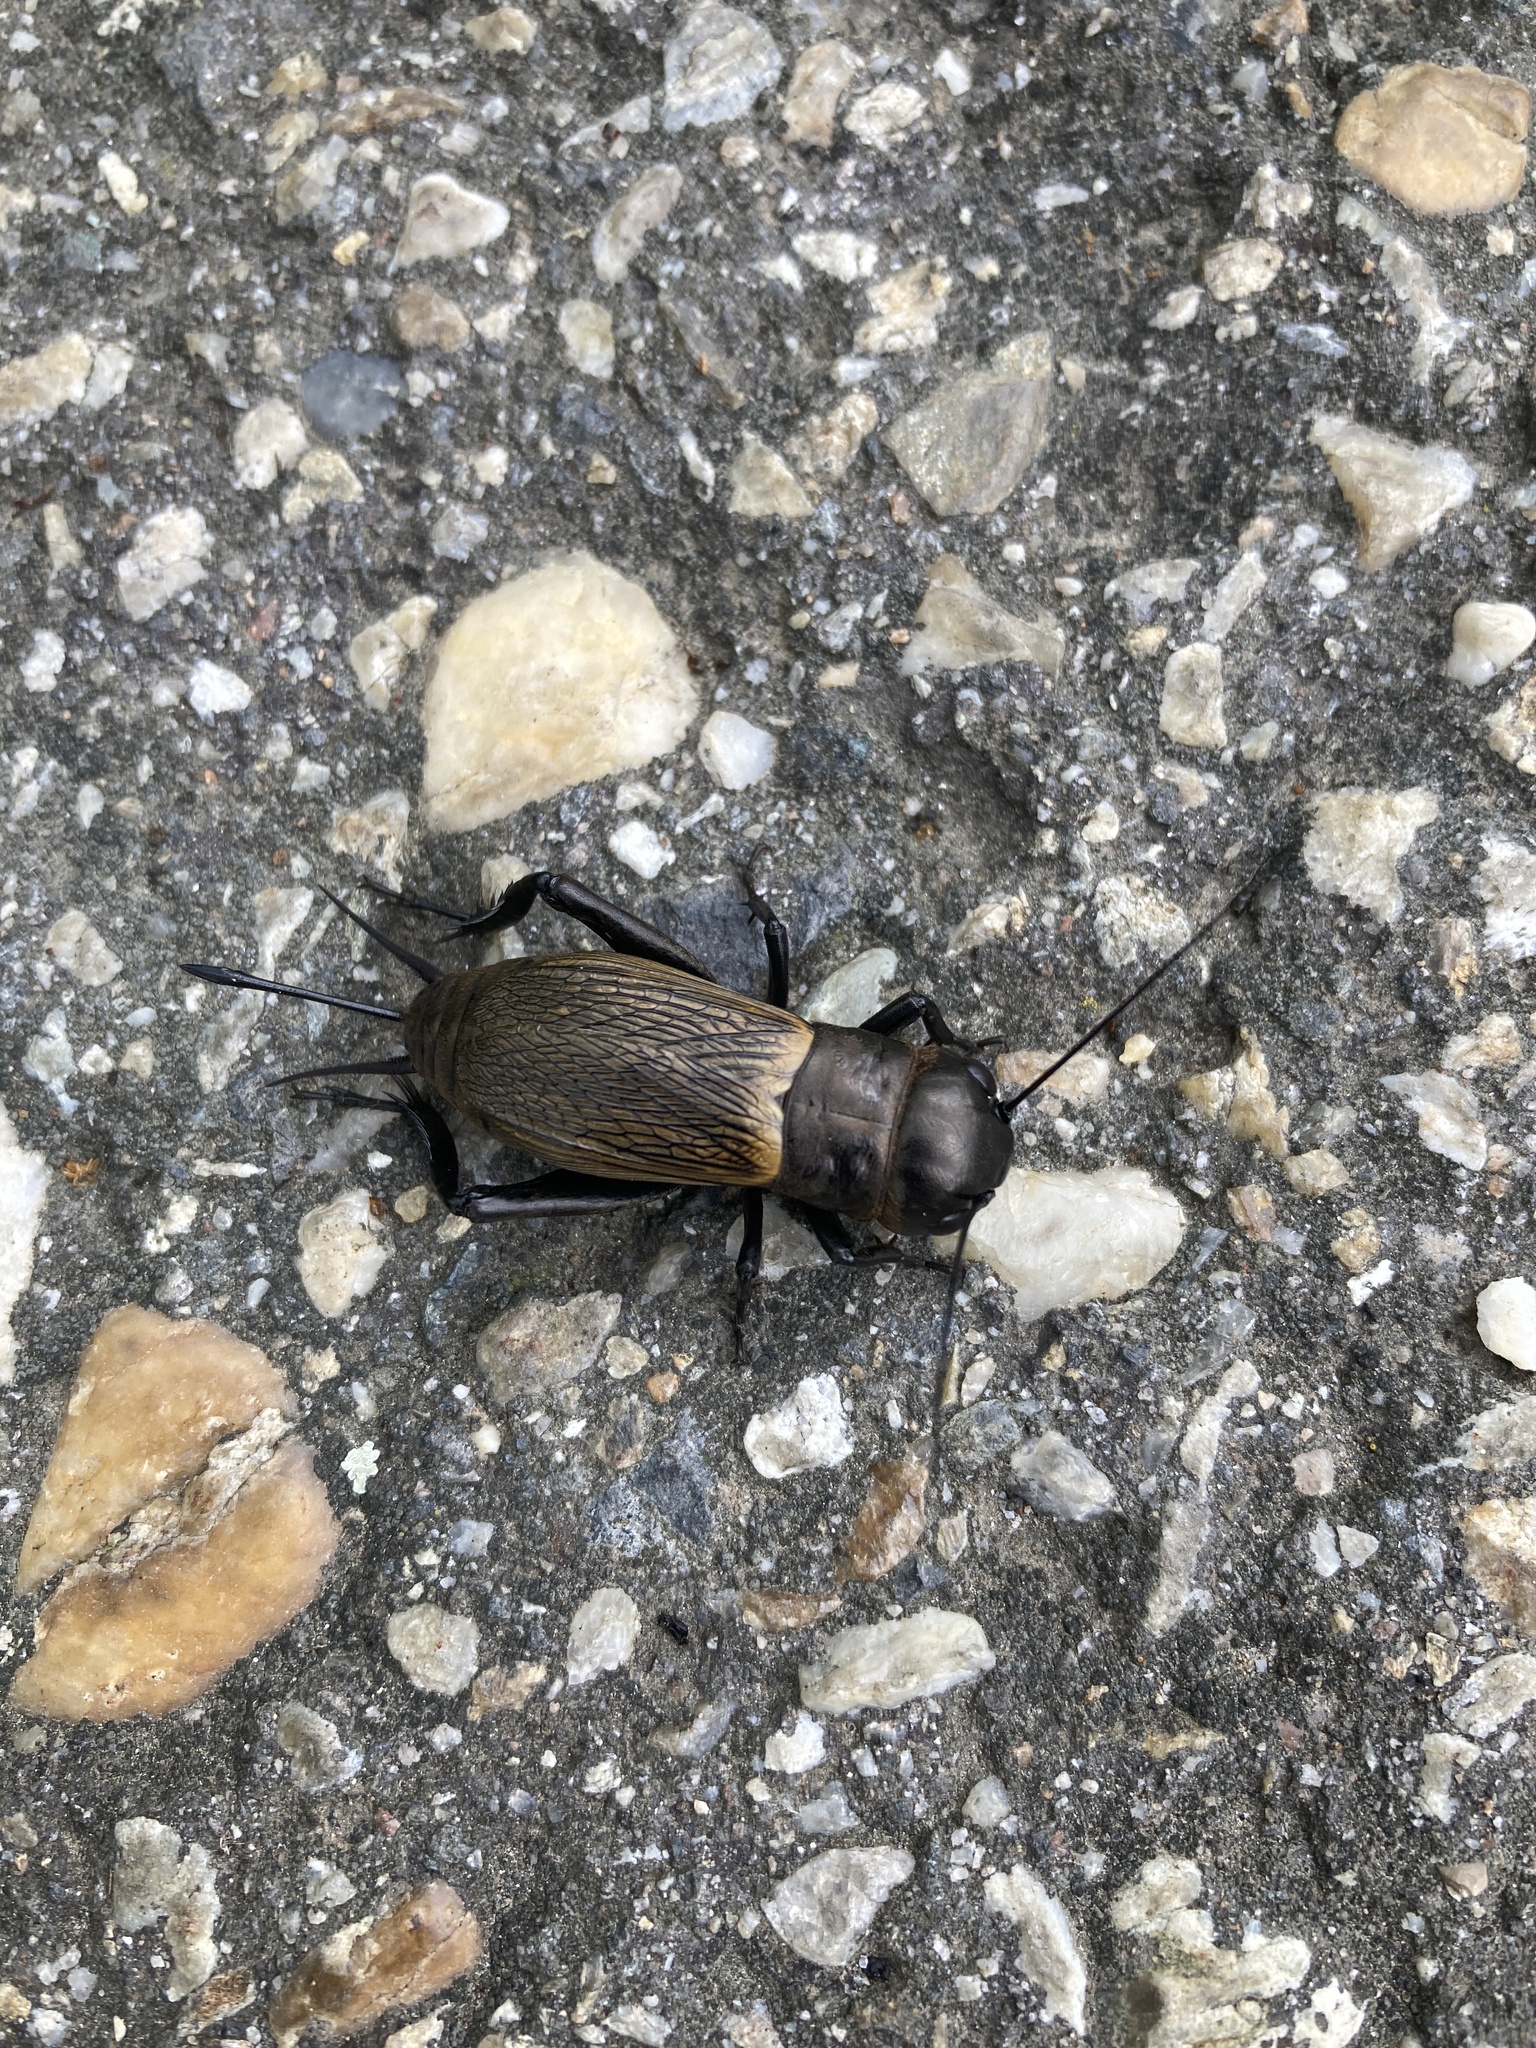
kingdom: Animalia
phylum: Arthropoda
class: Insecta
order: Orthoptera
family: Gryllidae
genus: Gryllus
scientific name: Gryllus campestris
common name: Field cricket
